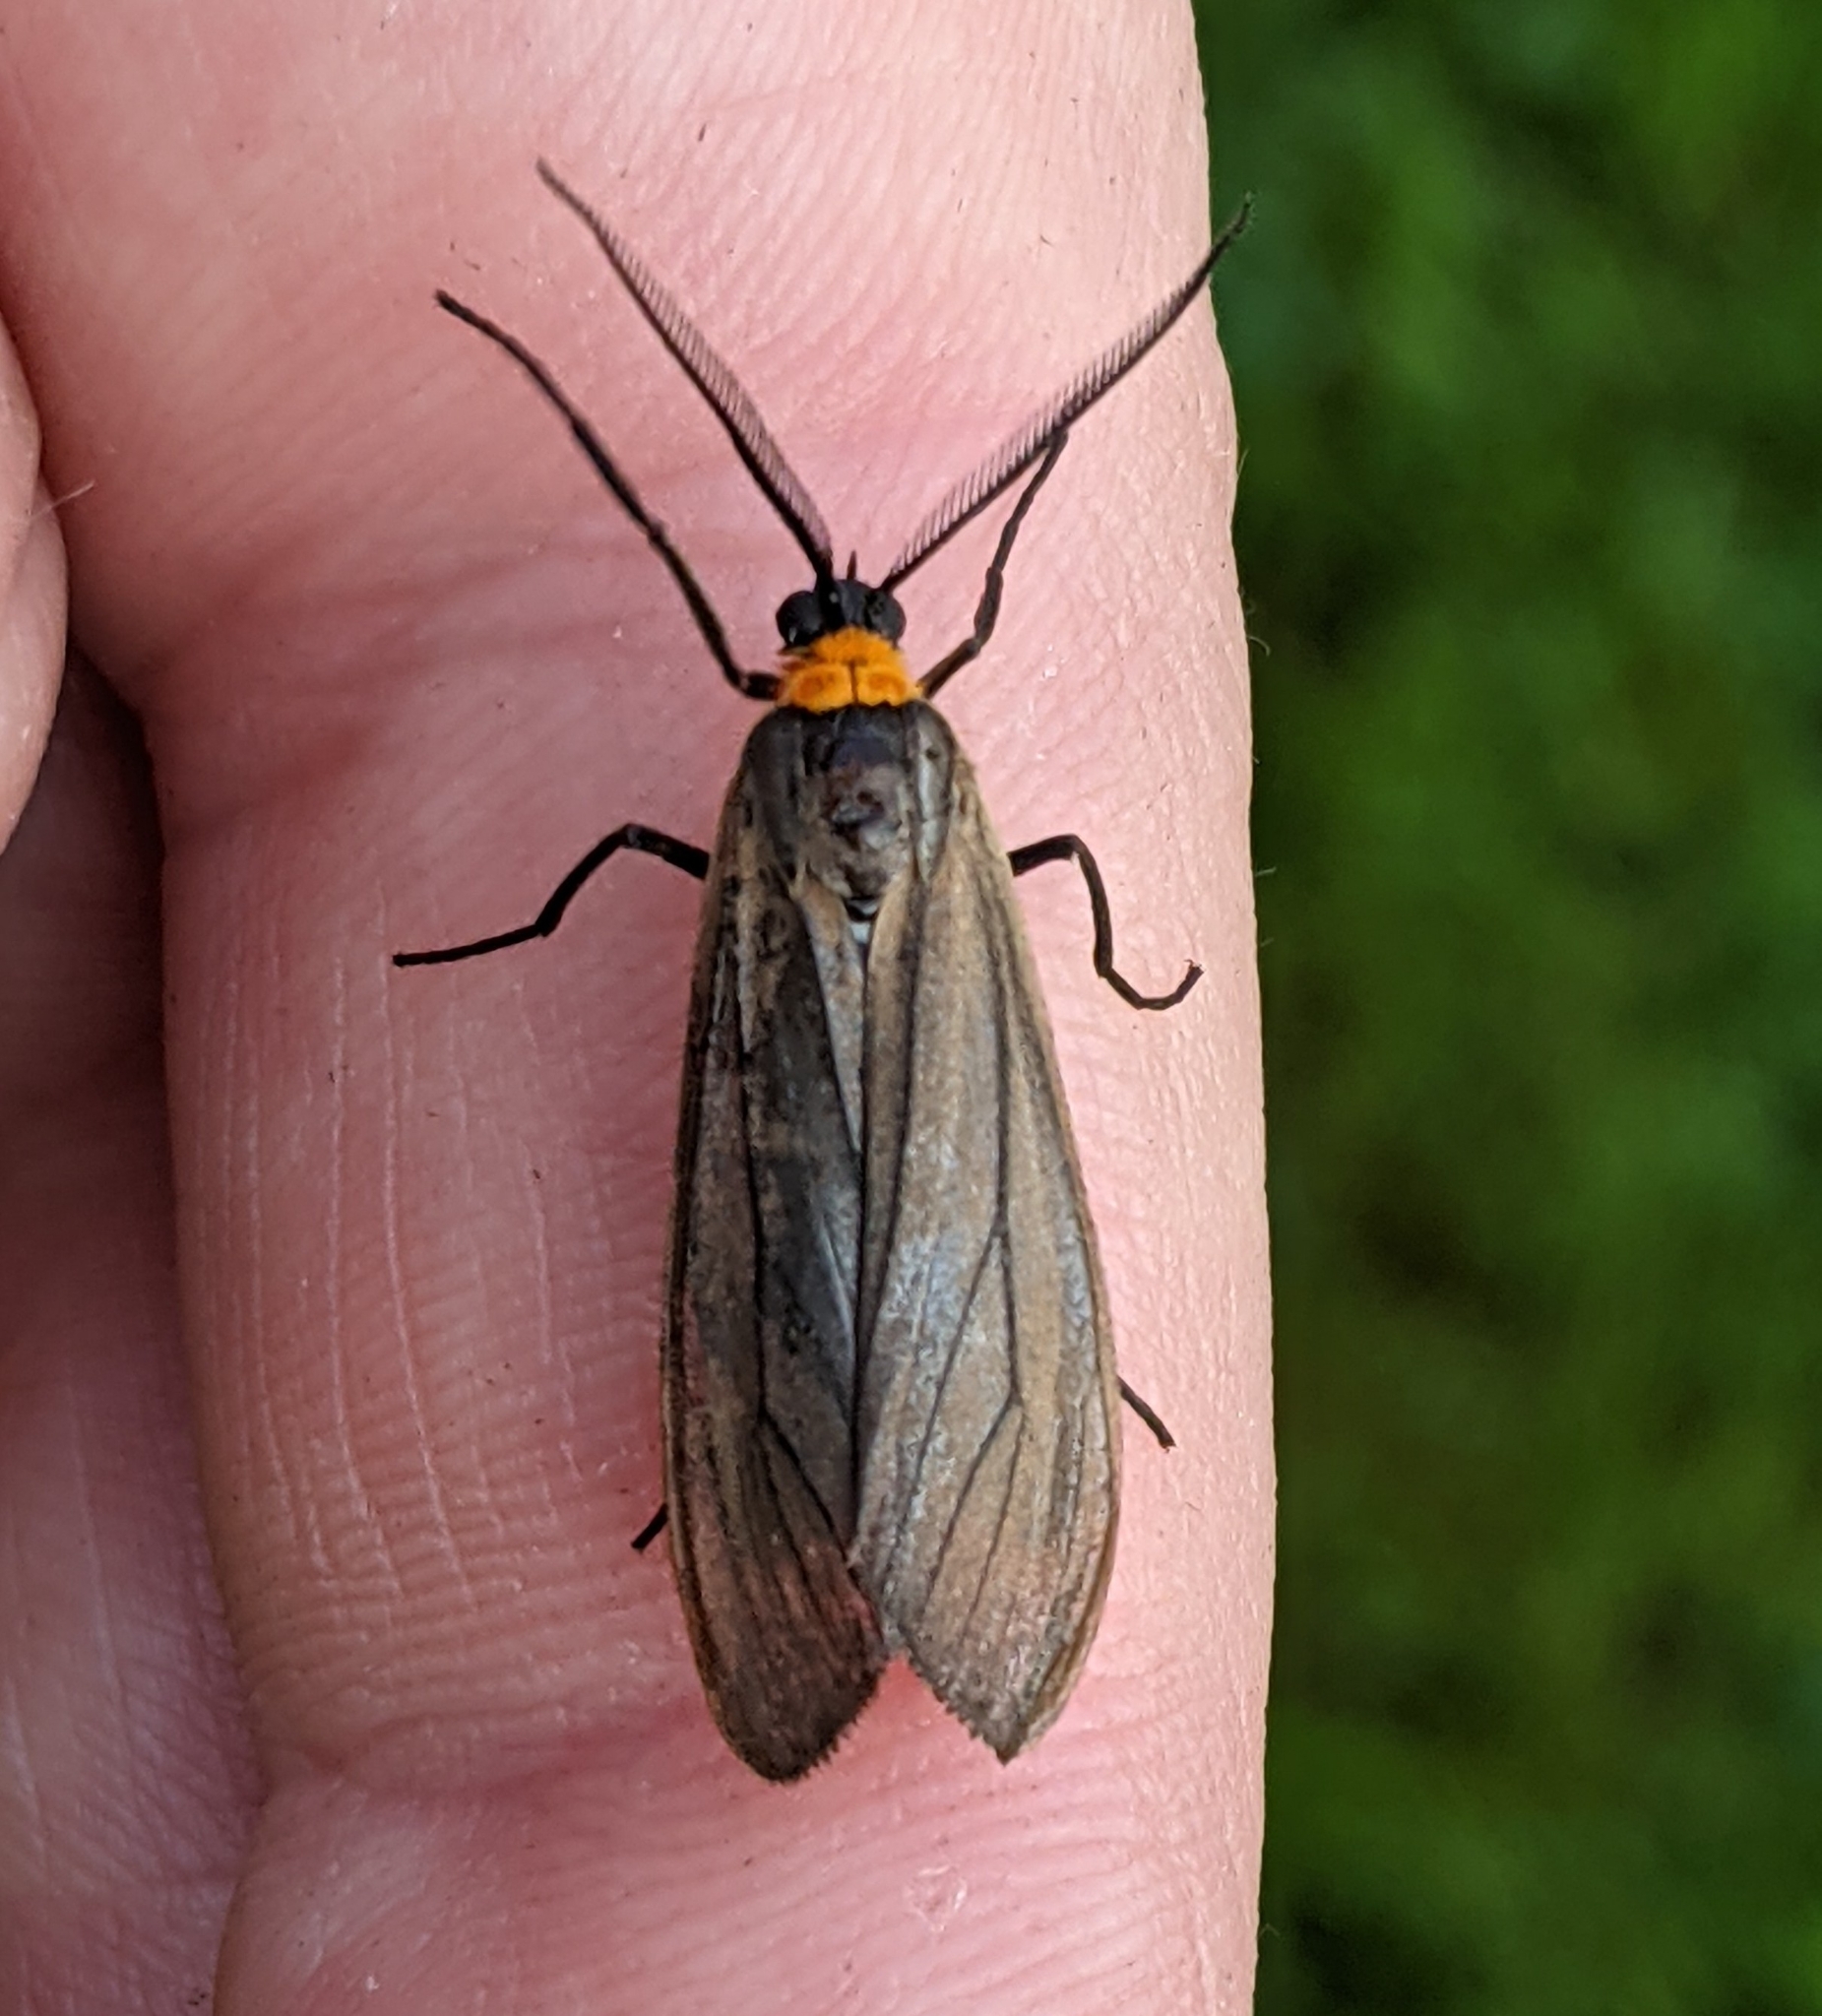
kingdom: Animalia
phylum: Arthropoda
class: Insecta
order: Lepidoptera
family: Erebidae
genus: Cisseps
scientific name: Cisseps fulvicollis
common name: Yellow-collared scape moth
